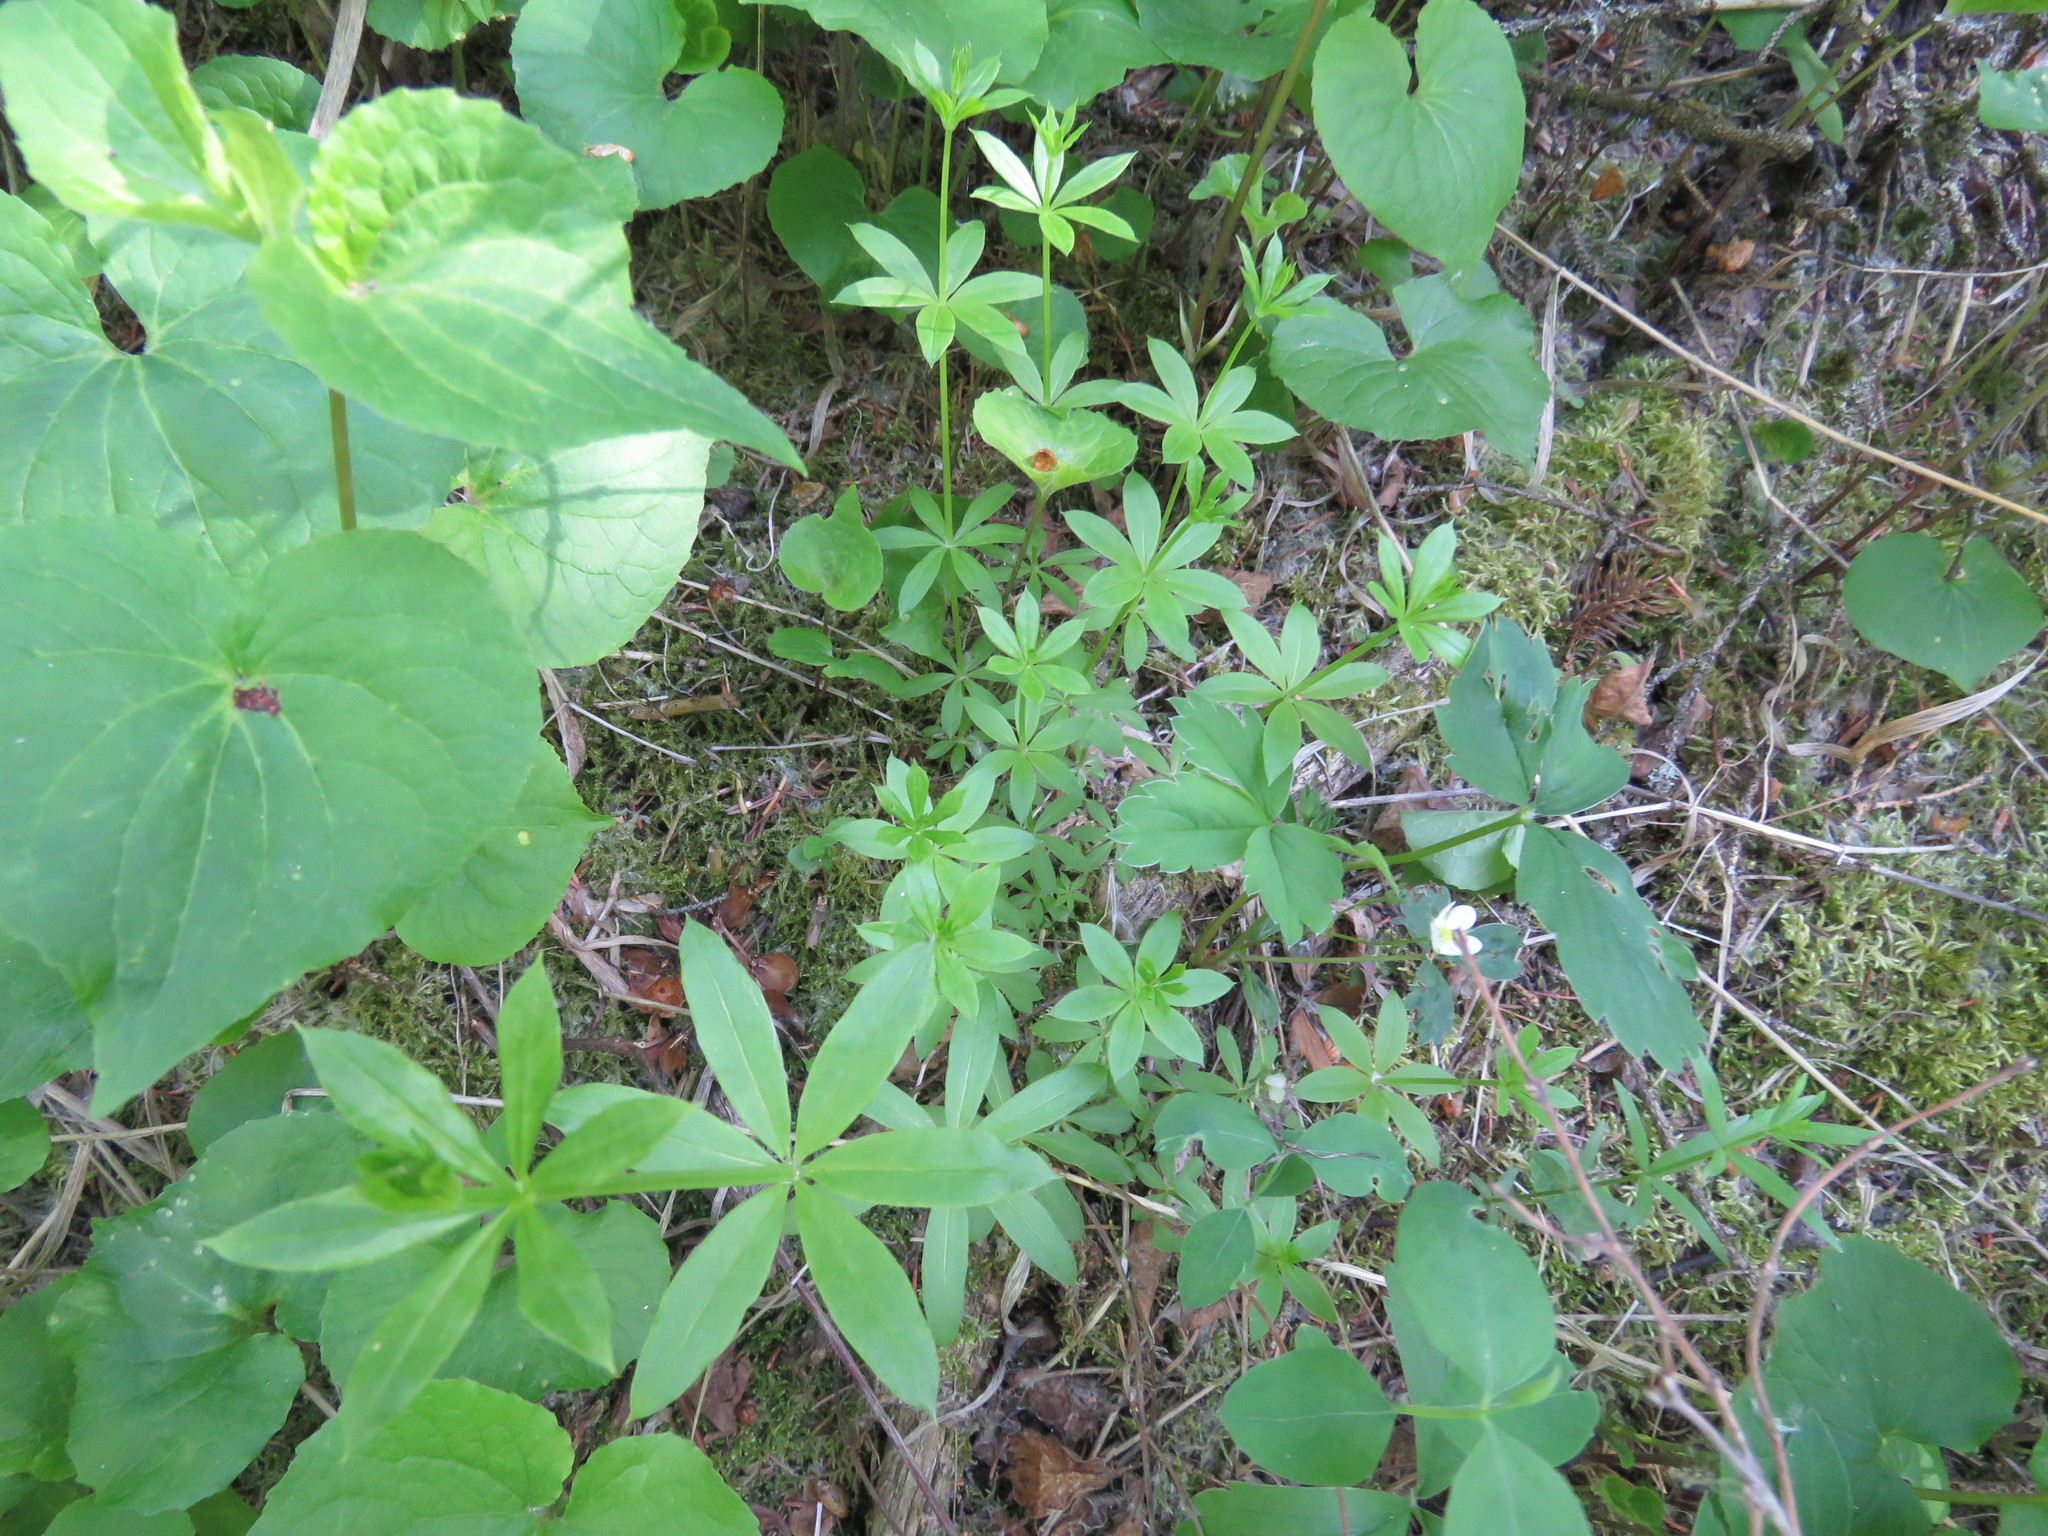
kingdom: Plantae
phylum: Tracheophyta
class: Magnoliopsida
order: Gentianales
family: Rubiaceae
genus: Galium
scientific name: Galium triflorum
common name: Fragrant bedstraw
